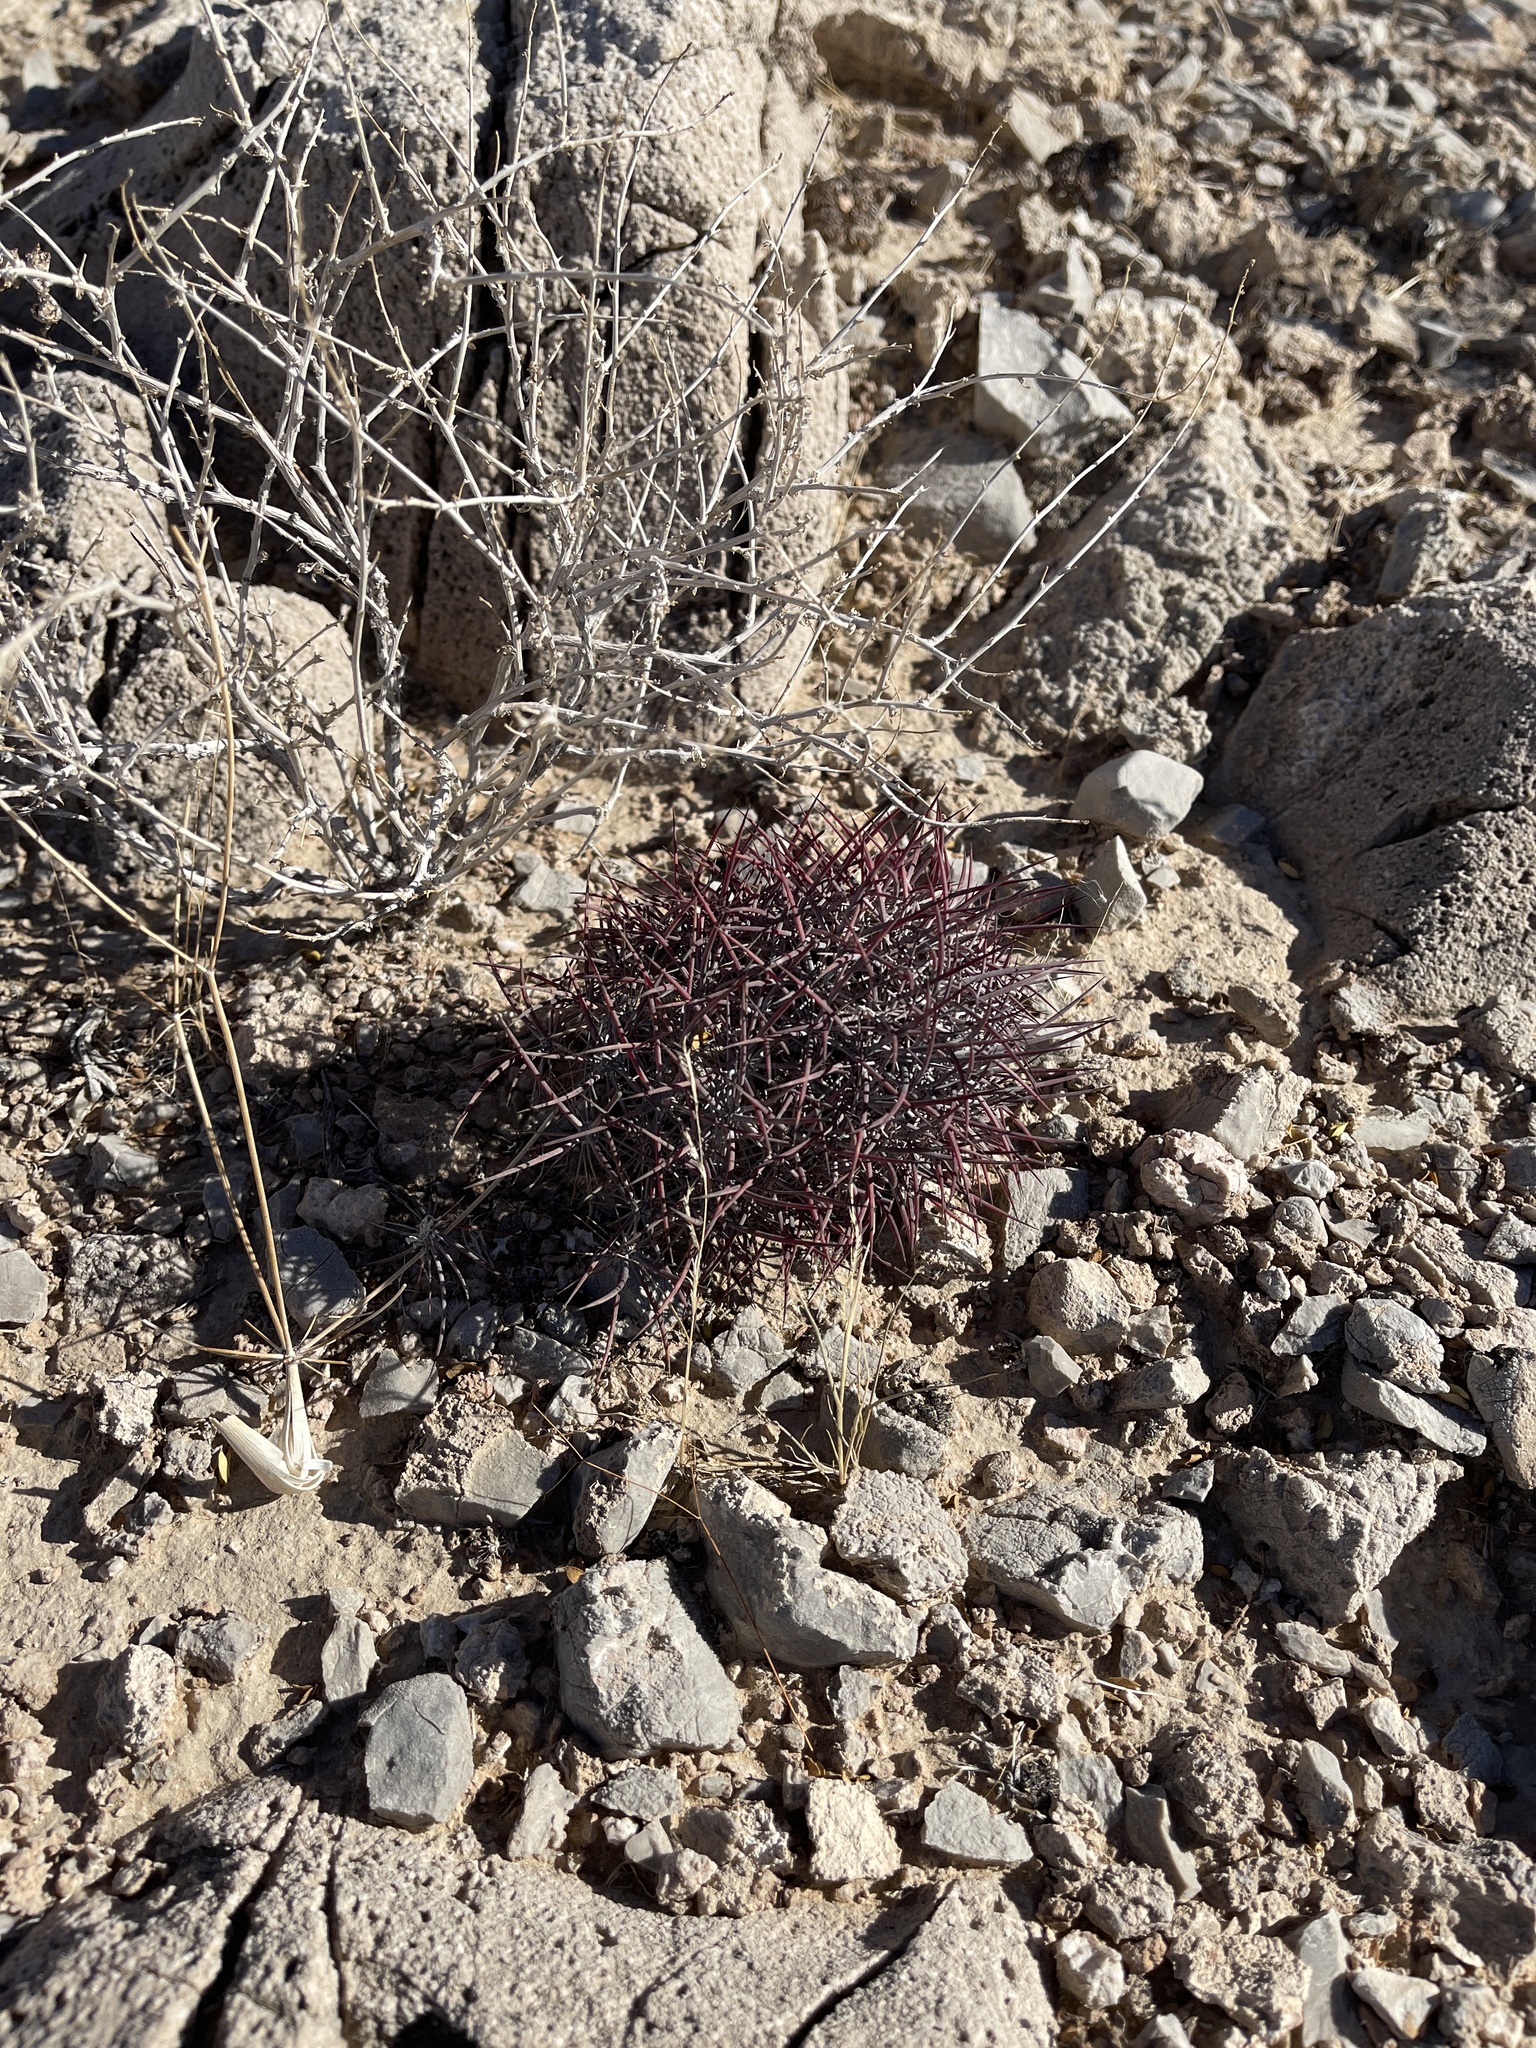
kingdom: Plantae
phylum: Tracheophyta
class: Magnoliopsida
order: Caryophyllales
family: Cactaceae
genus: Sclerocactus
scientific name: Sclerocactus johnsonii
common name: Eight-spine fishhook cactus
